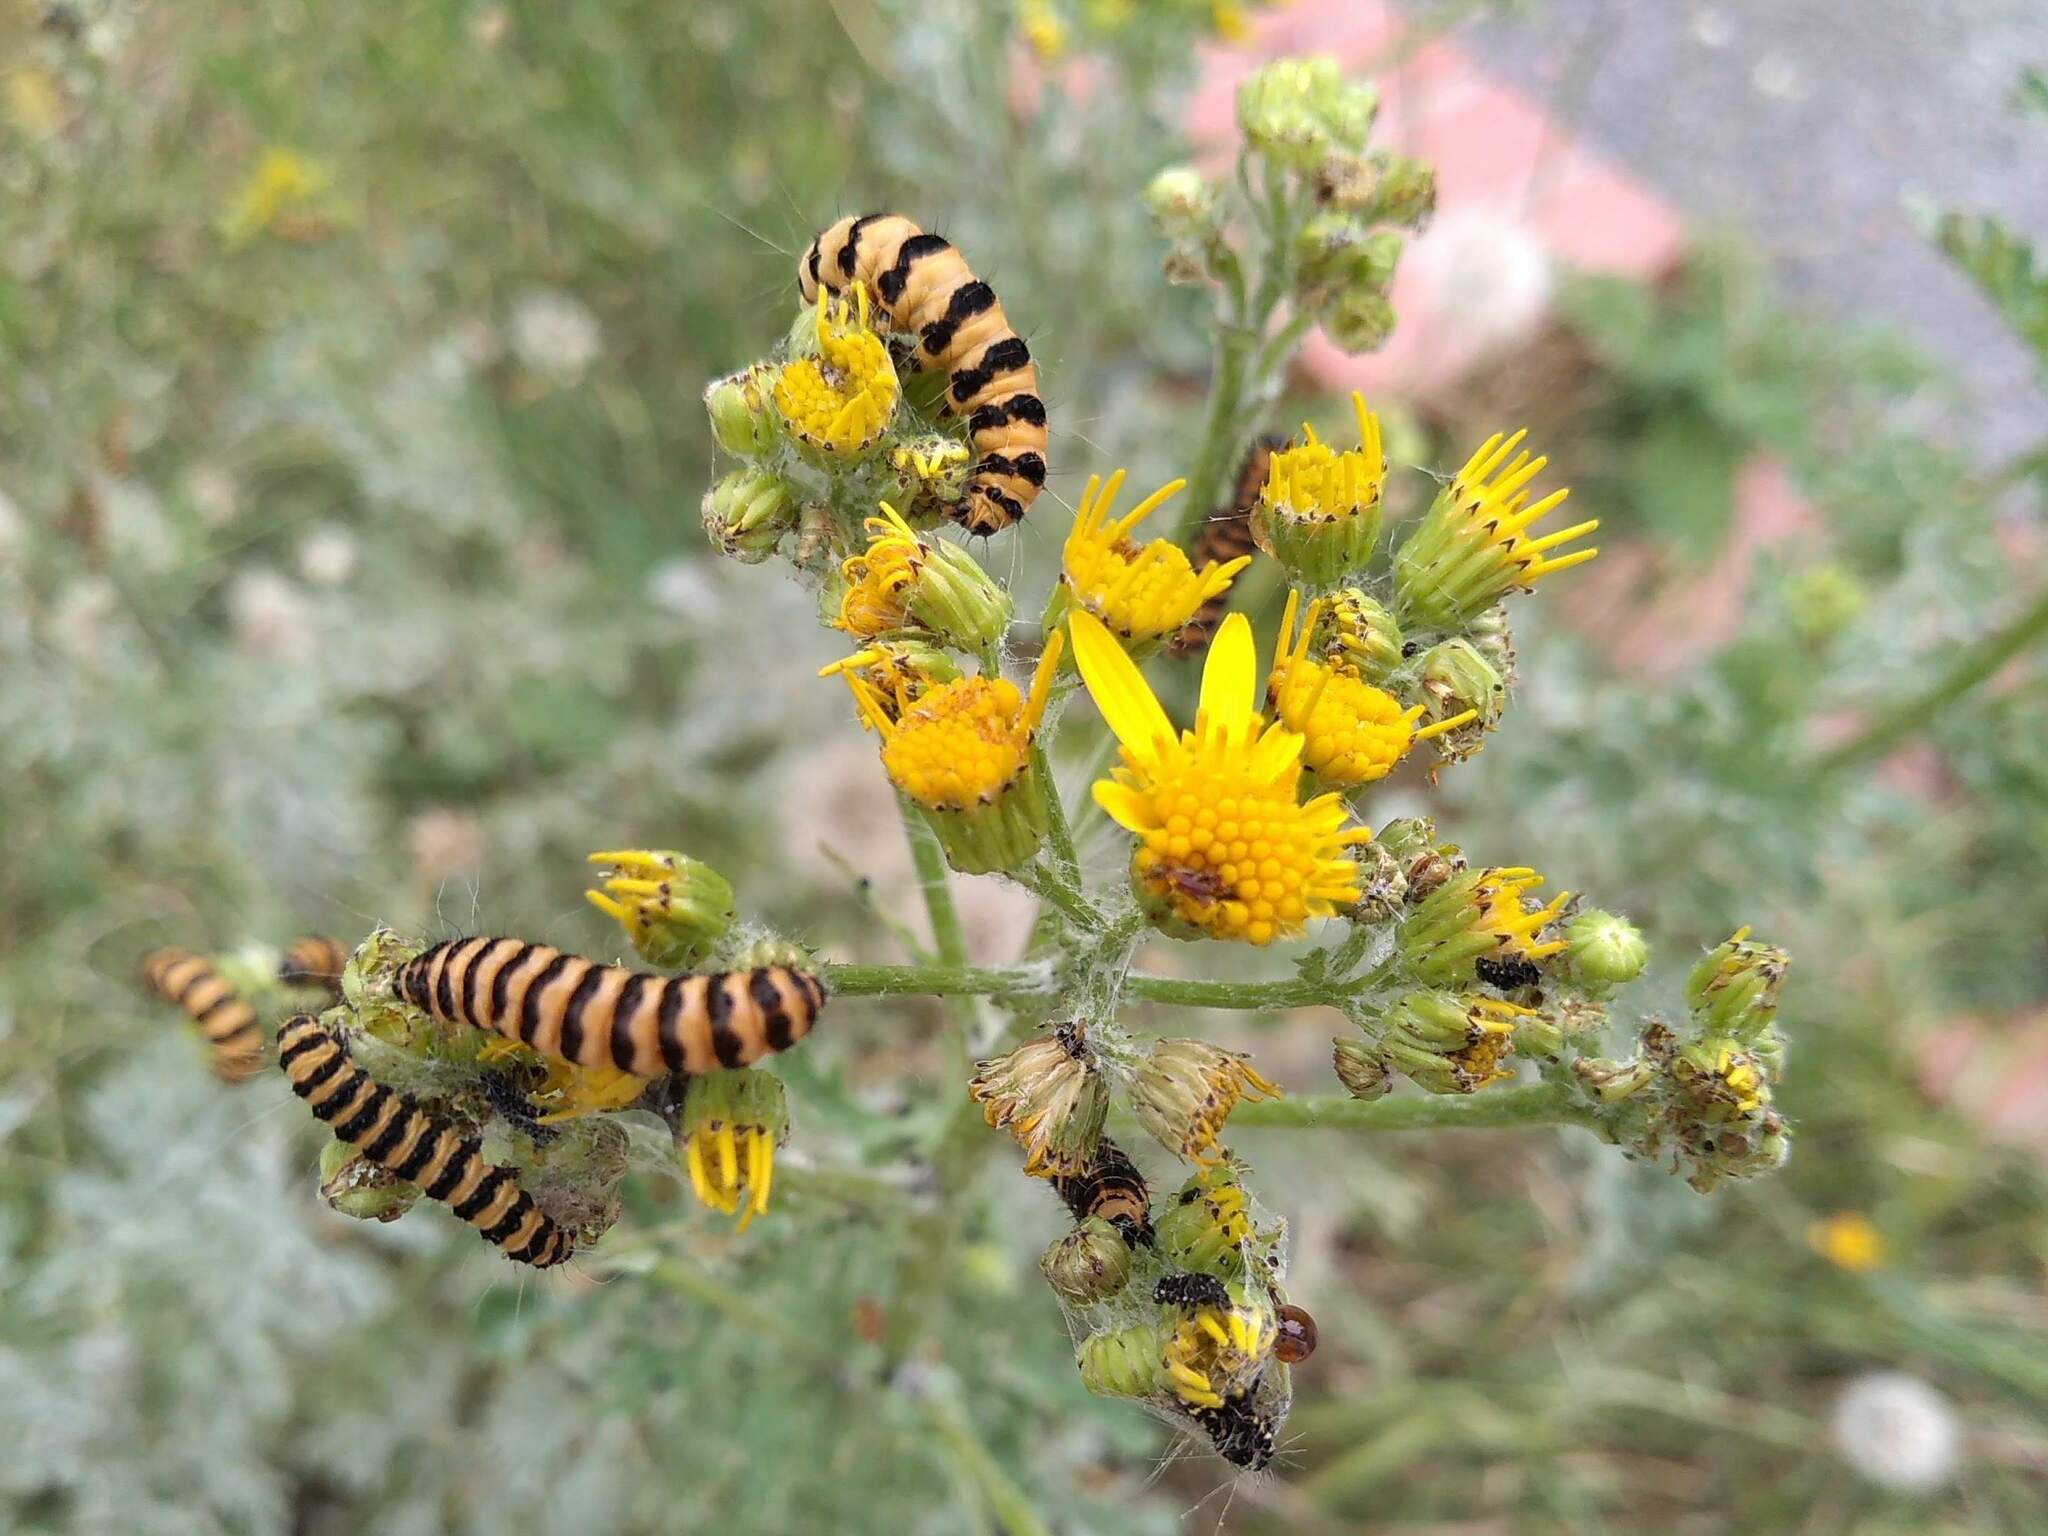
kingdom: Animalia
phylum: Arthropoda
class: Insecta
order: Lepidoptera
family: Erebidae
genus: Tyria
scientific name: Tyria jacobaeae
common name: Cinnabar
